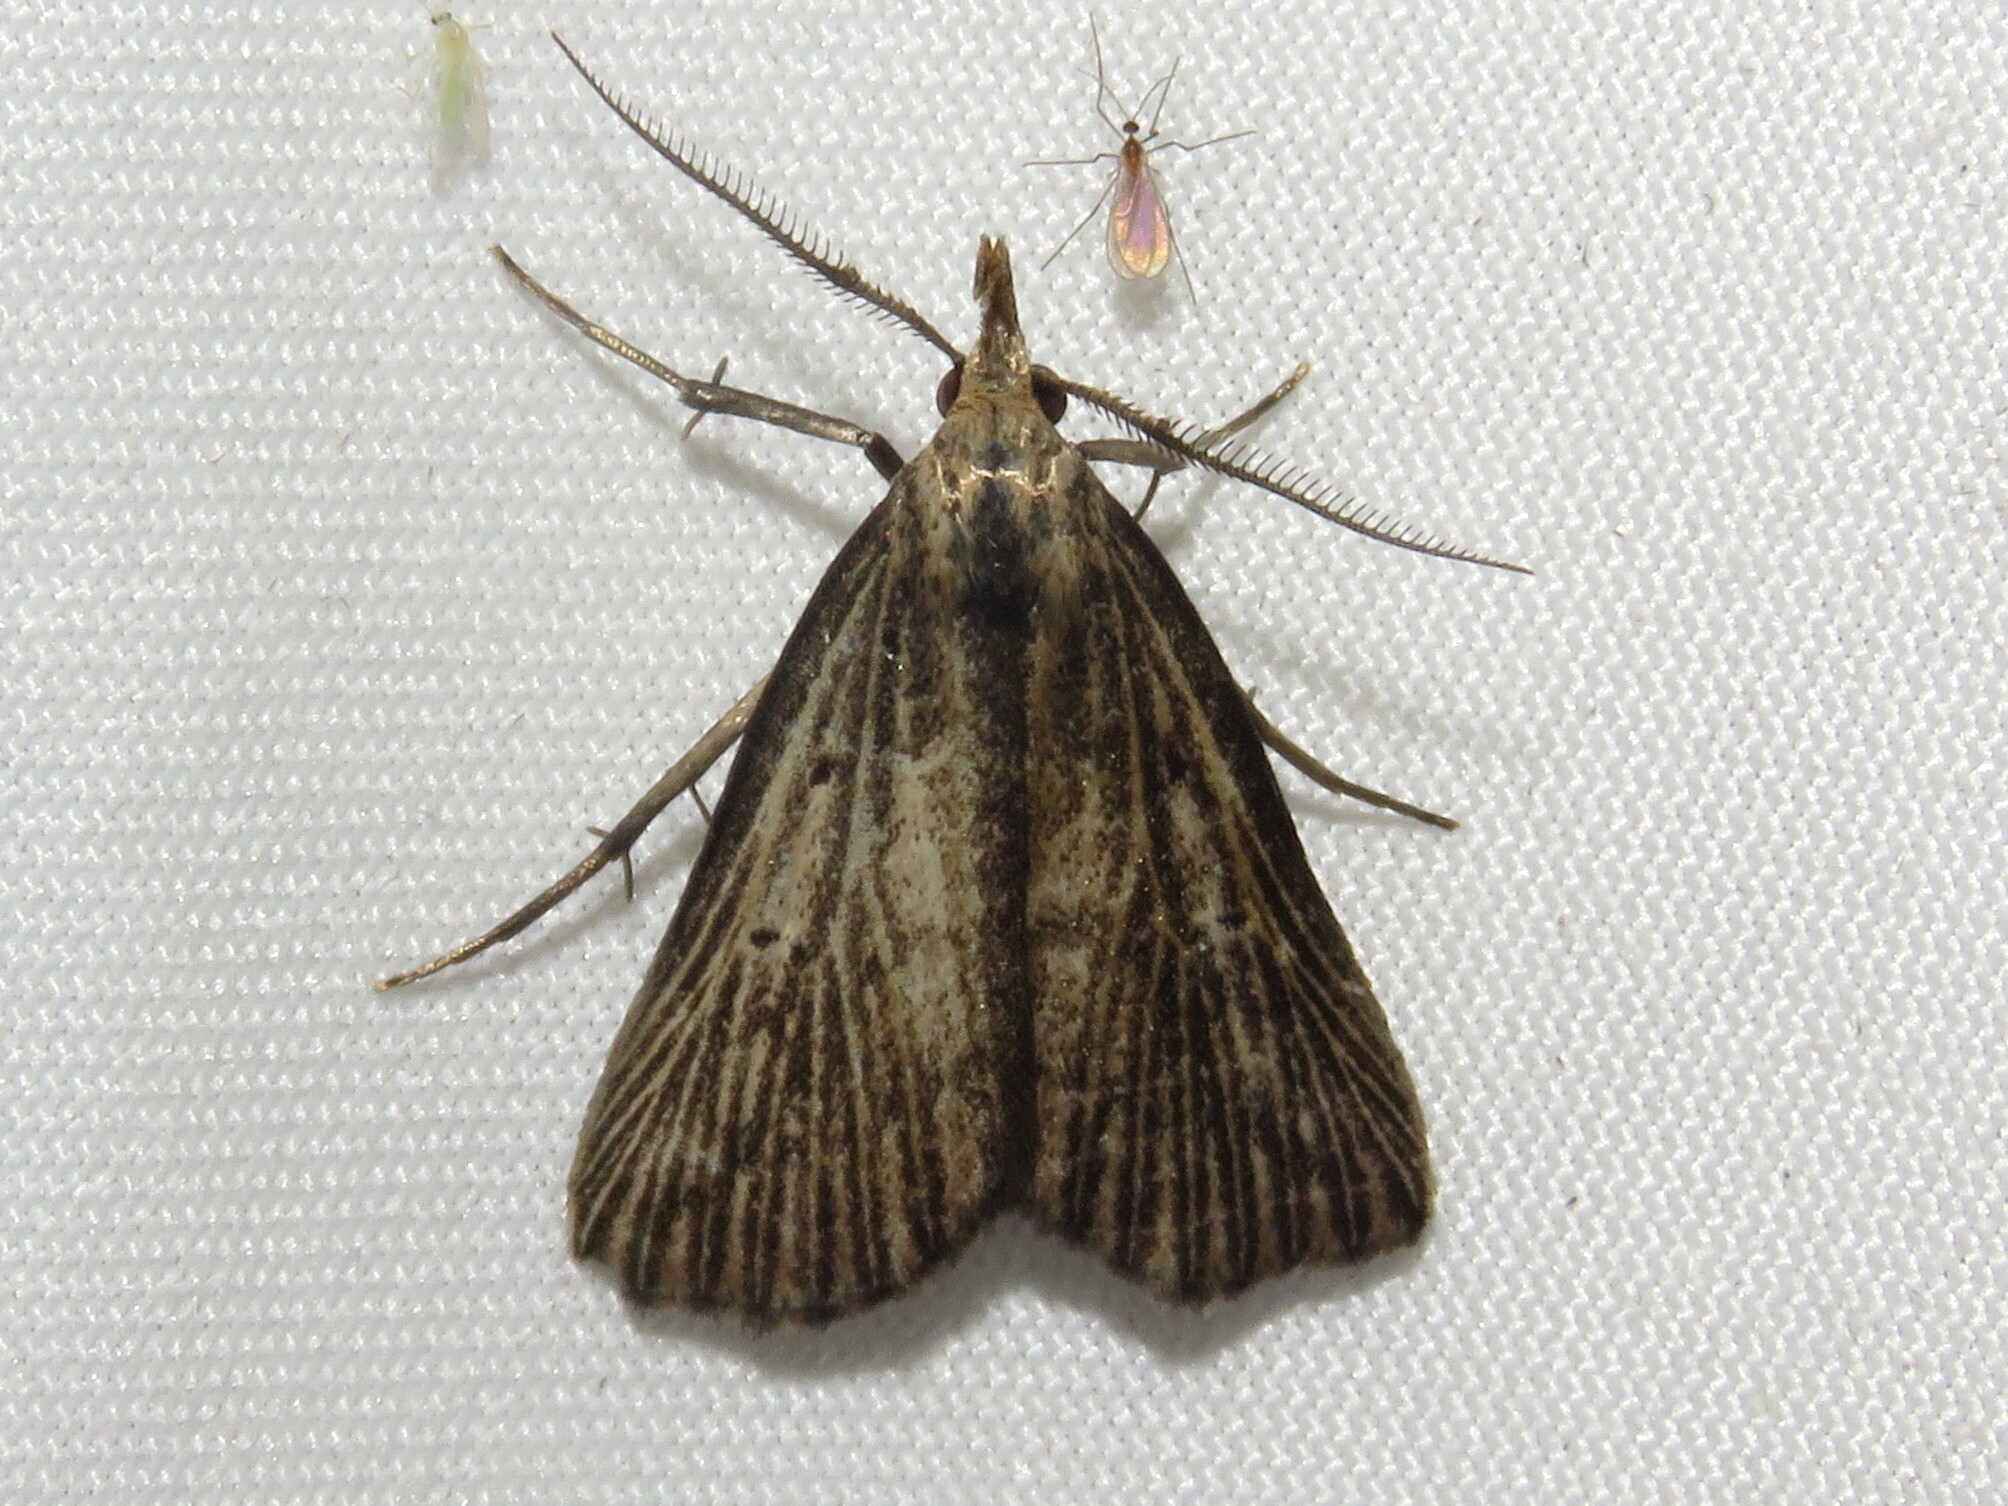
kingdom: Animalia
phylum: Arthropoda
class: Insecta
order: Lepidoptera
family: Erebidae
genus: Macrochilo
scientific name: Macrochilo orciferalis
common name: Bronzy owlet
